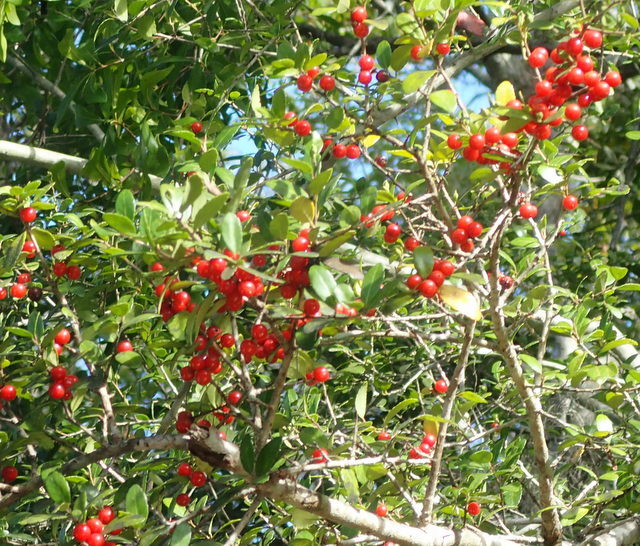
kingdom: Plantae
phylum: Tracheophyta
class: Magnoliopsida
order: Aquifoliales
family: Aquifoliaceae
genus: Ilex
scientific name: Ilex vomitoria
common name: Yaupon holly
